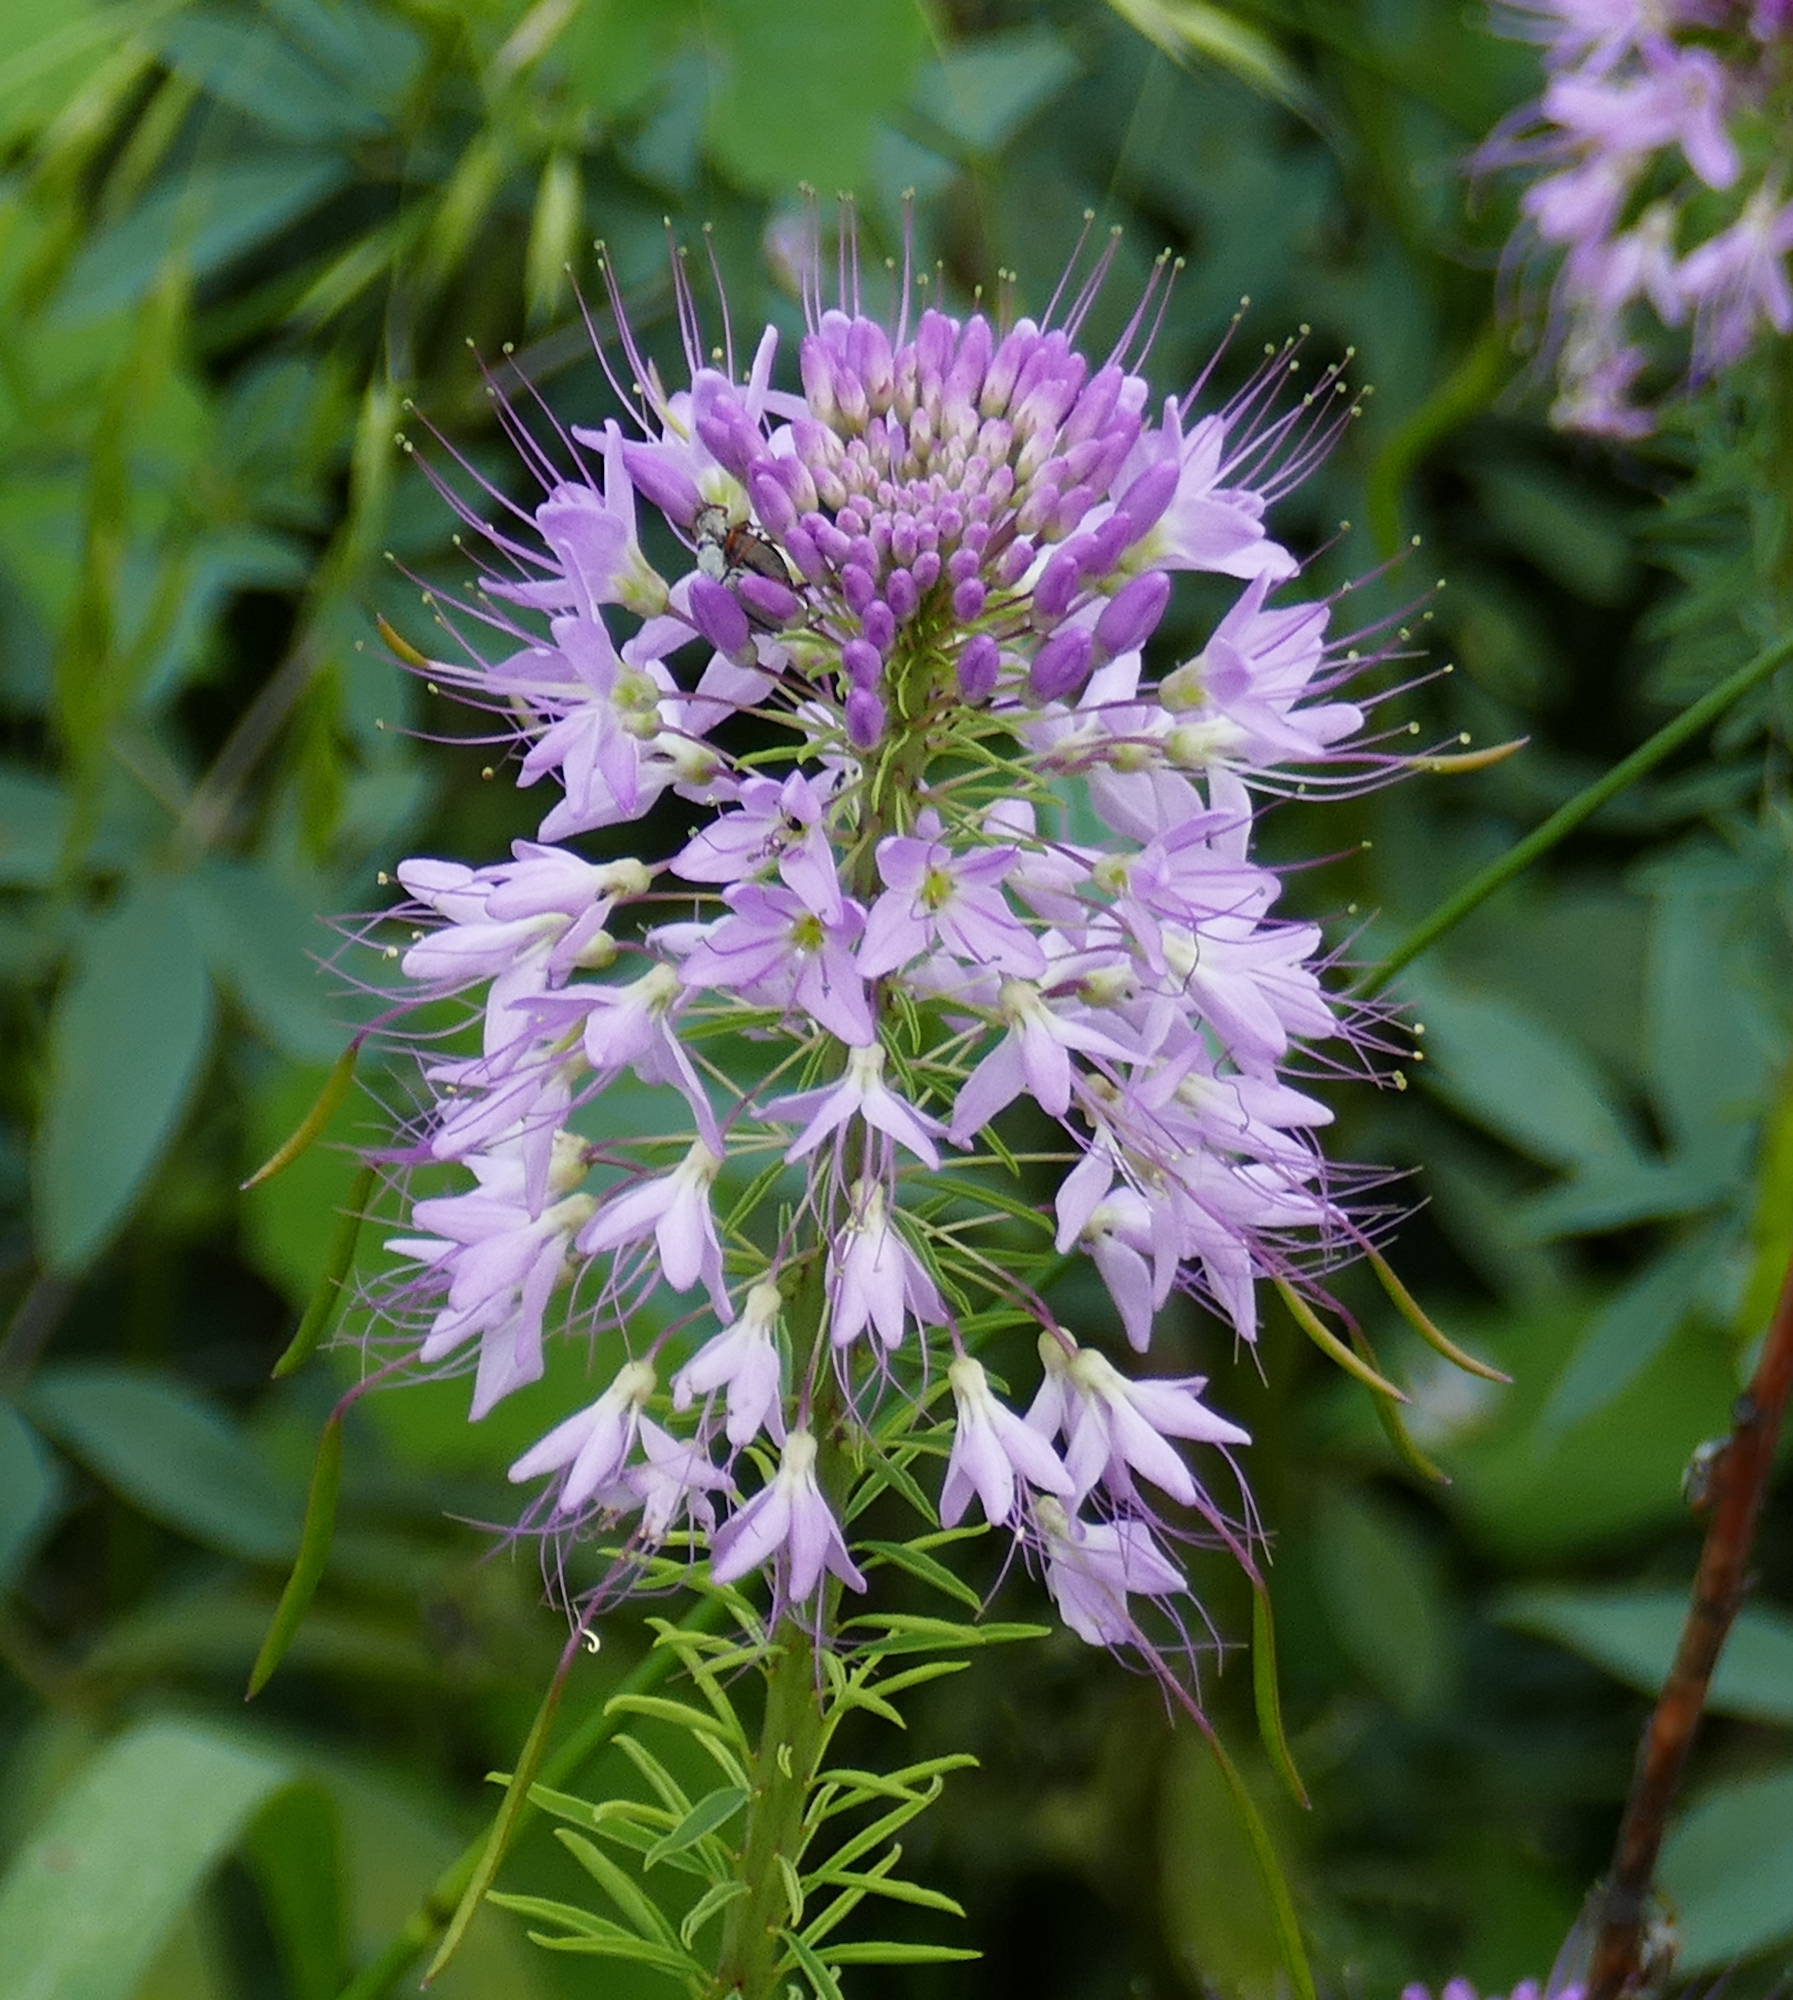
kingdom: Plantae
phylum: Tracheophyta
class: Magnoliopsida
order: Brassicales
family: Cleomaceae
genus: Cleomella
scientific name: Cleomella serrulata
